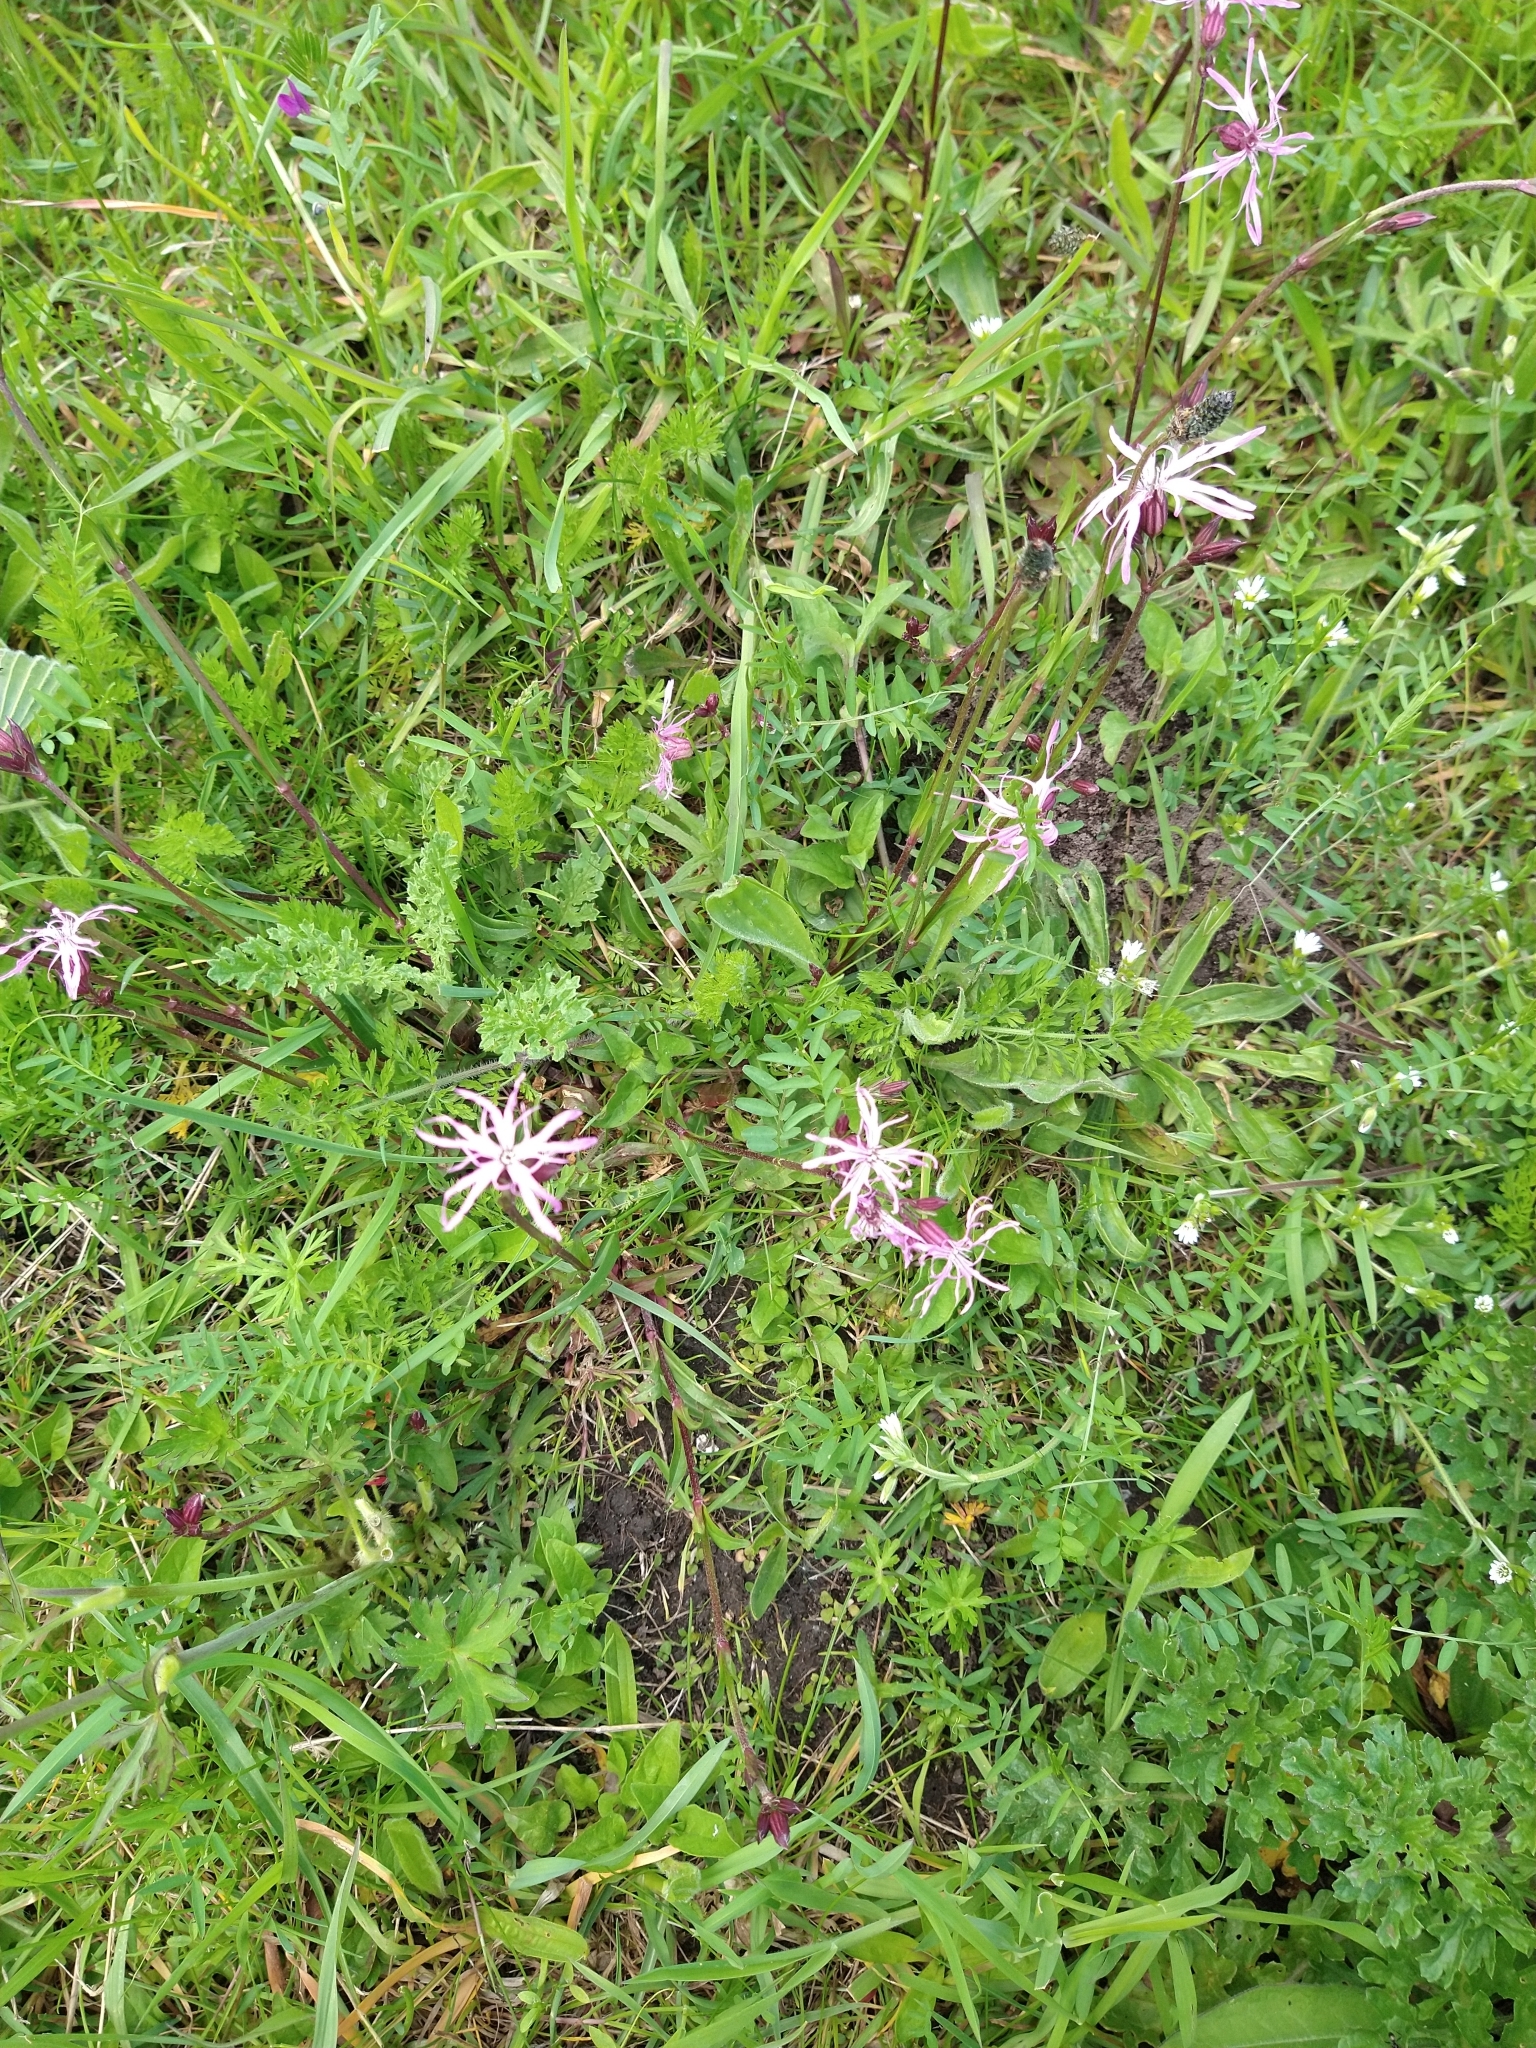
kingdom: Plantae
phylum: Tracheophyta
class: Magnoliopsida
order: Caryophyllales
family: Caryophyllaceae
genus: Silene
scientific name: Silene flos-cuculi
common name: Ragged-robin
